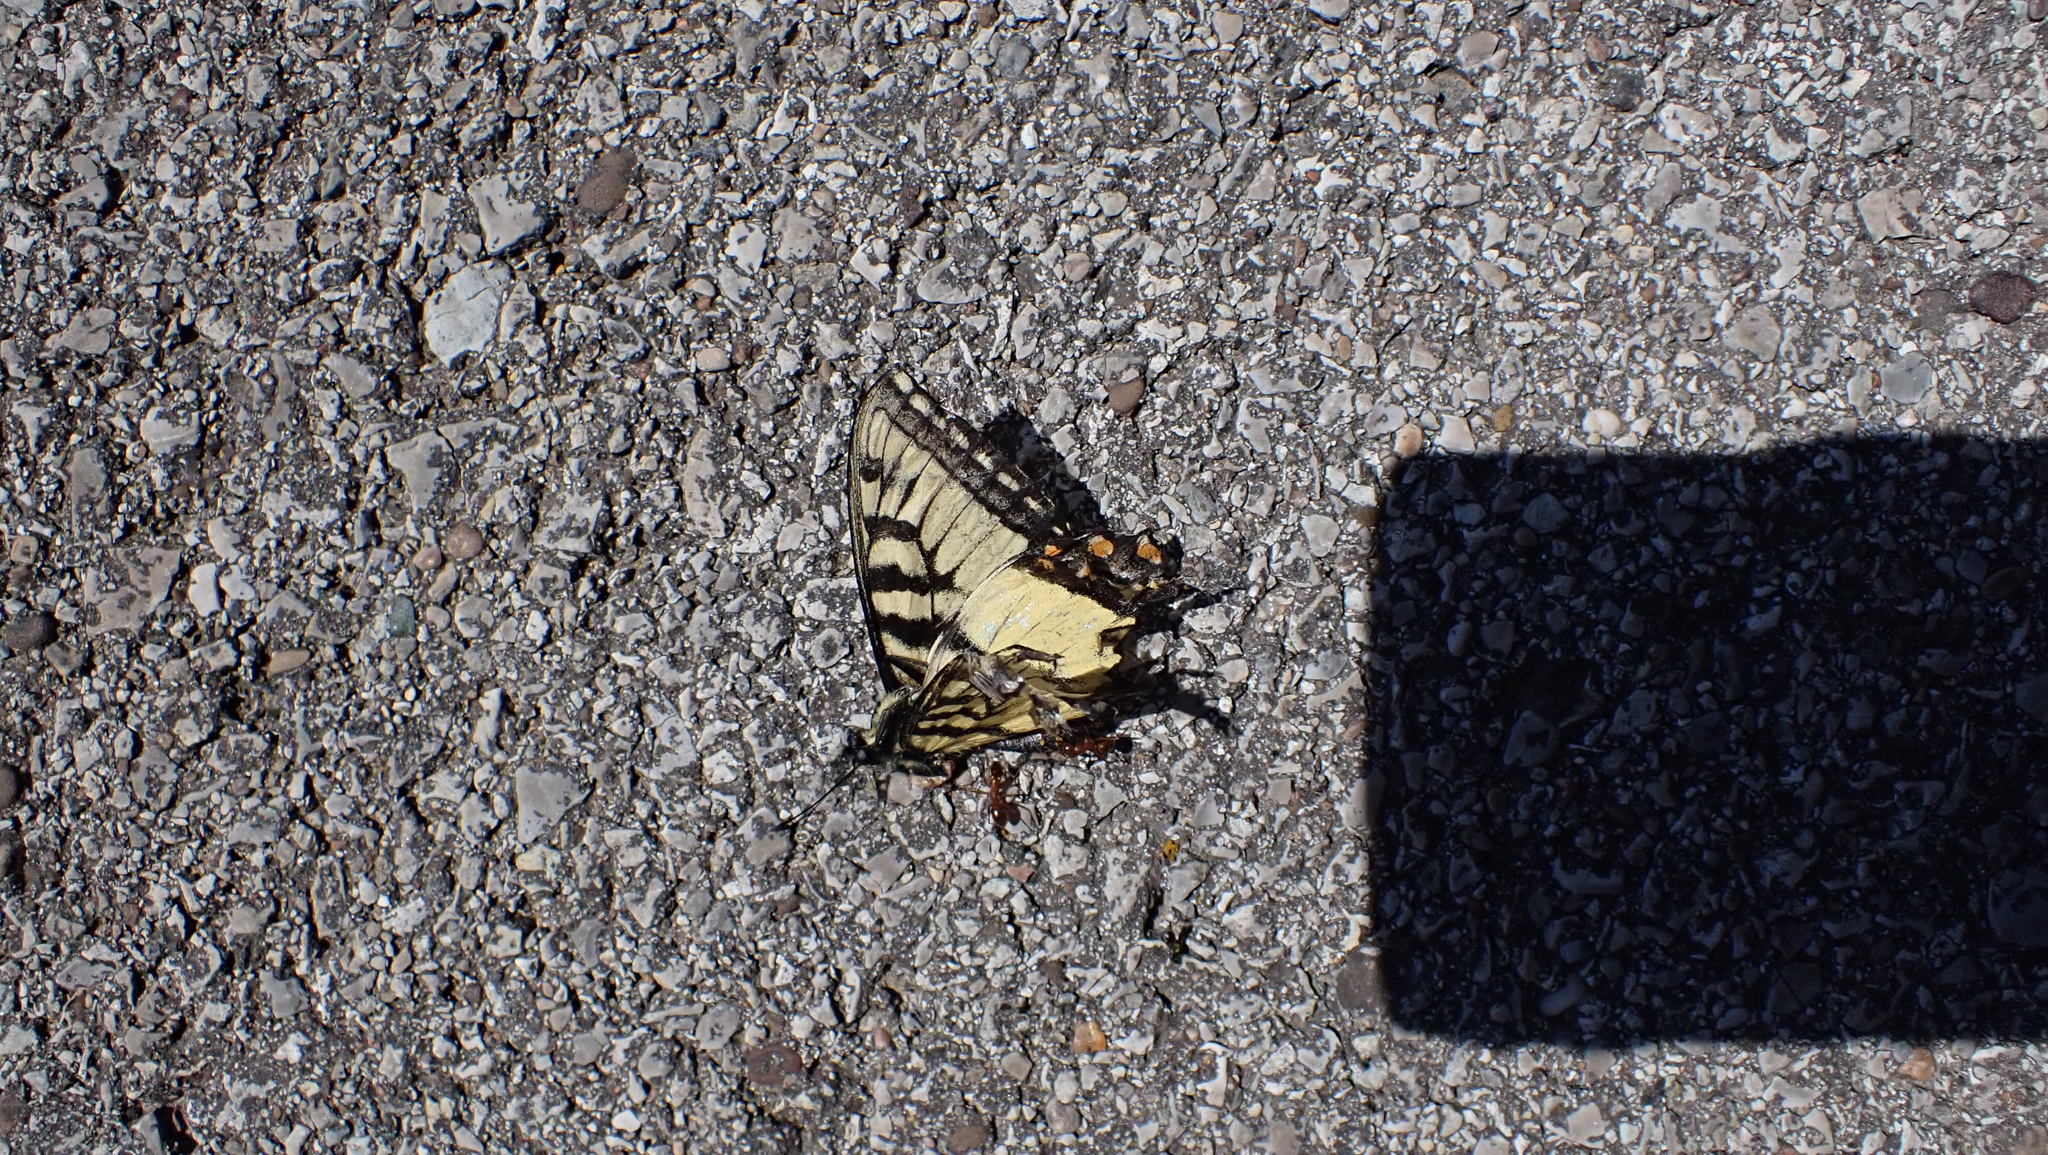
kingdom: Animalia
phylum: Arthropoda
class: Insecta
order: Lepidoptera
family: Papilionidae
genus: Papilio
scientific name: Papilio glaucus
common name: Tiger swallowtail
